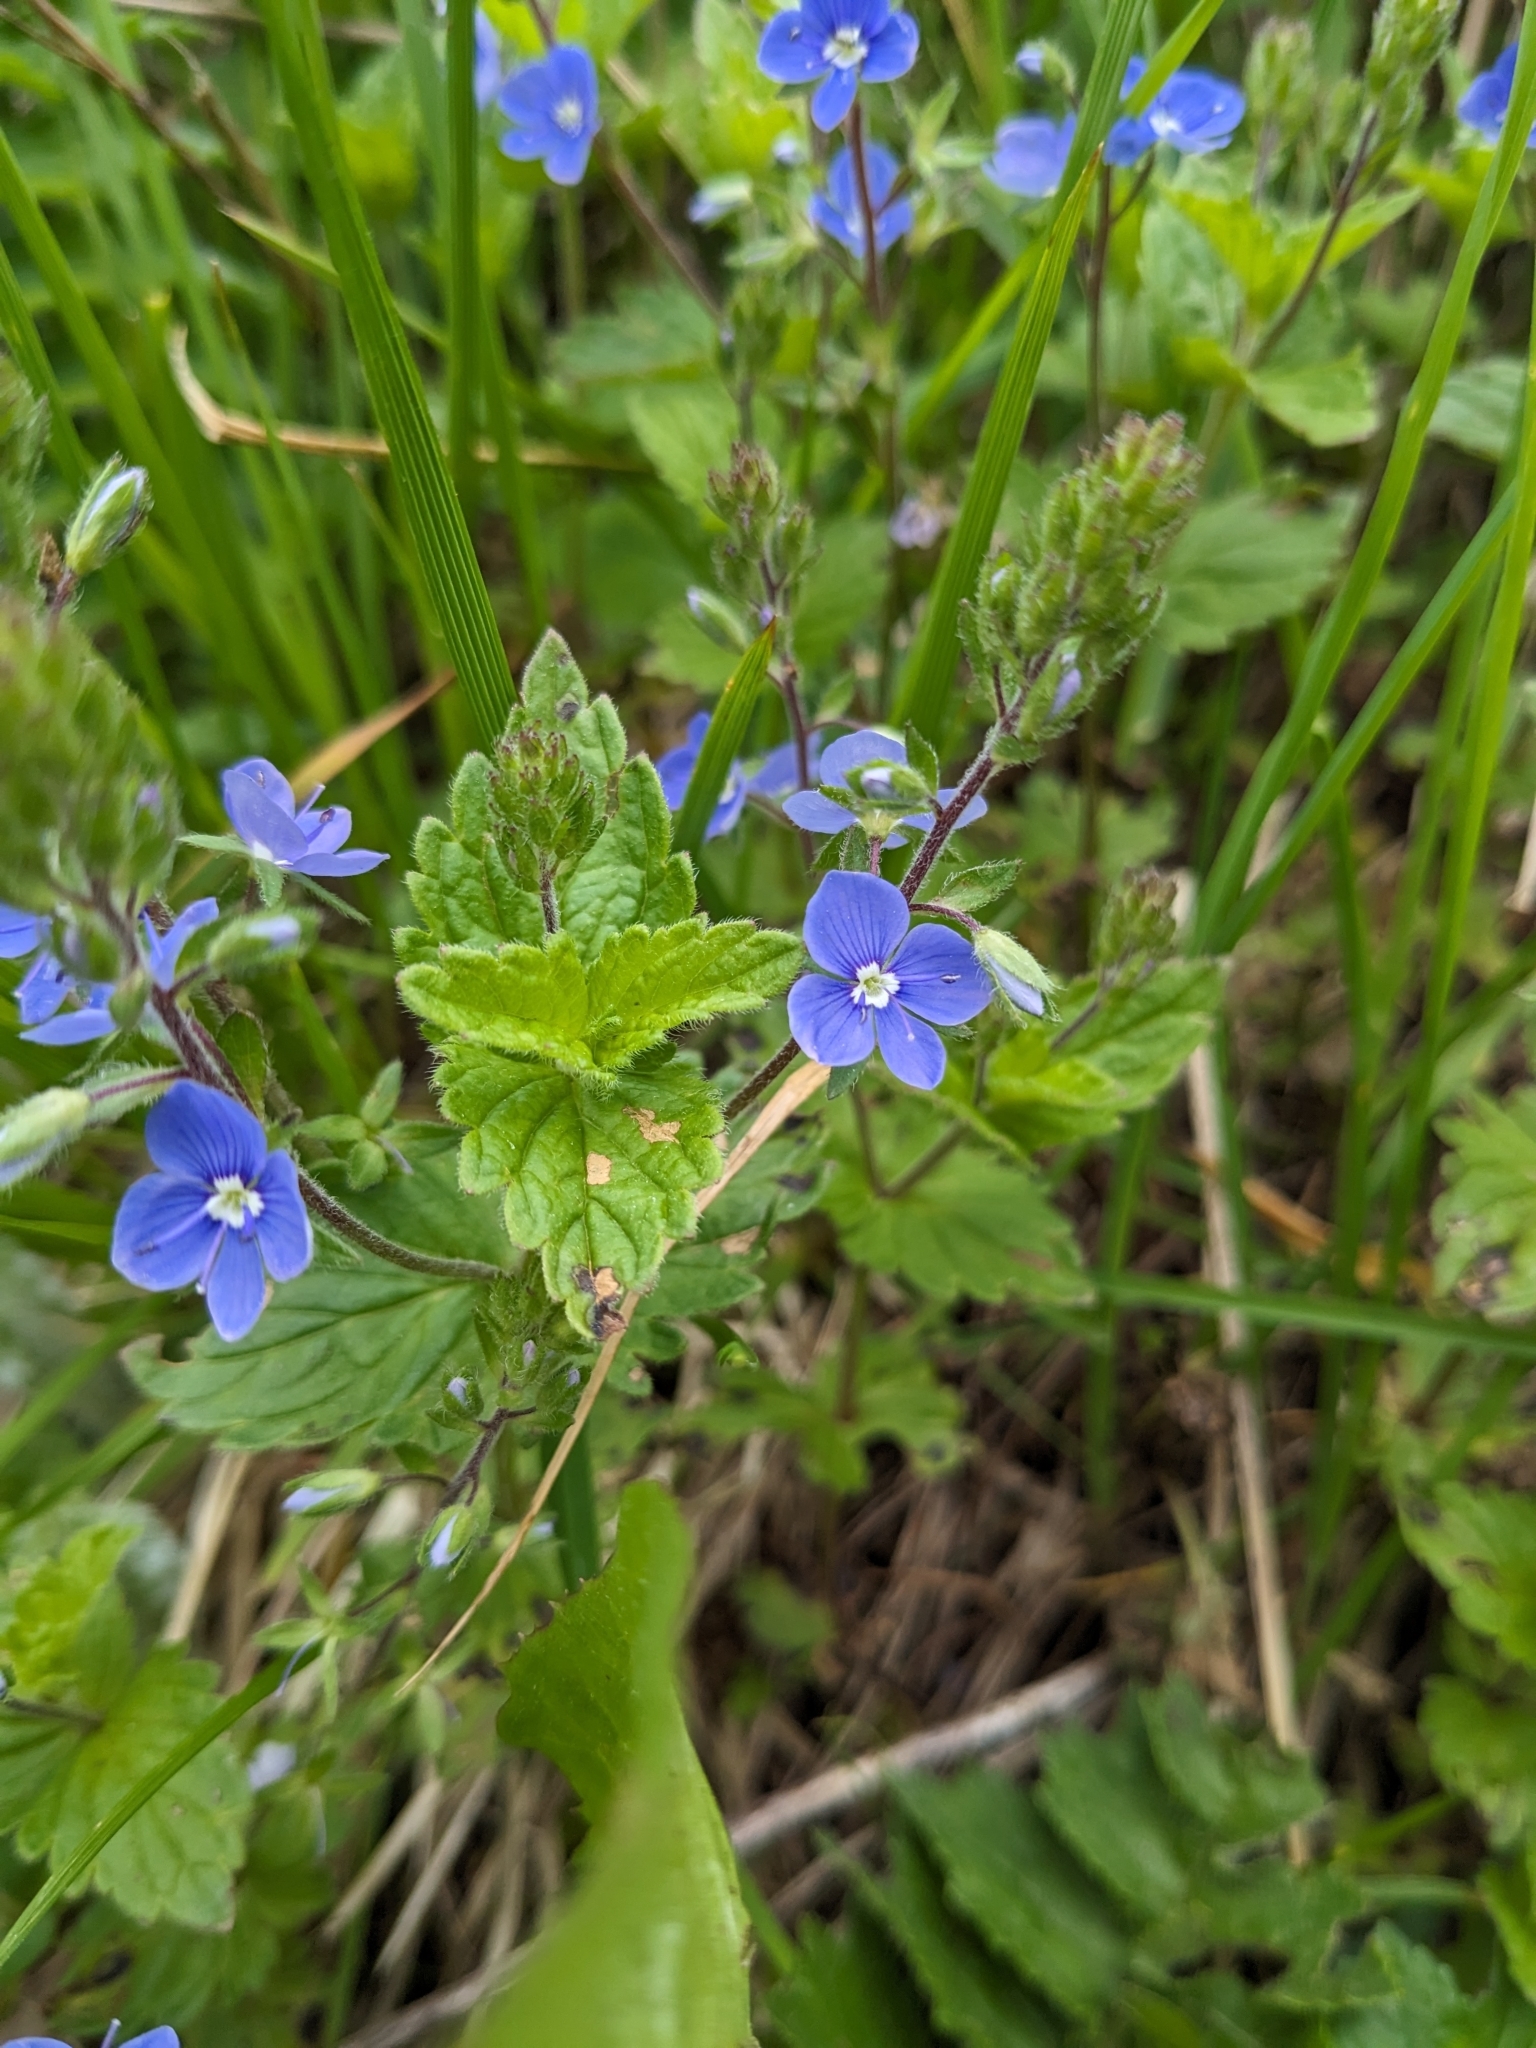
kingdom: Plantae
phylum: Tracheophyta
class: Magnoliopsida
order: Lamiales
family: Plantaginaceae
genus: Veronica
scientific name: Veronica chamaedrys
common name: Germander speedwell
